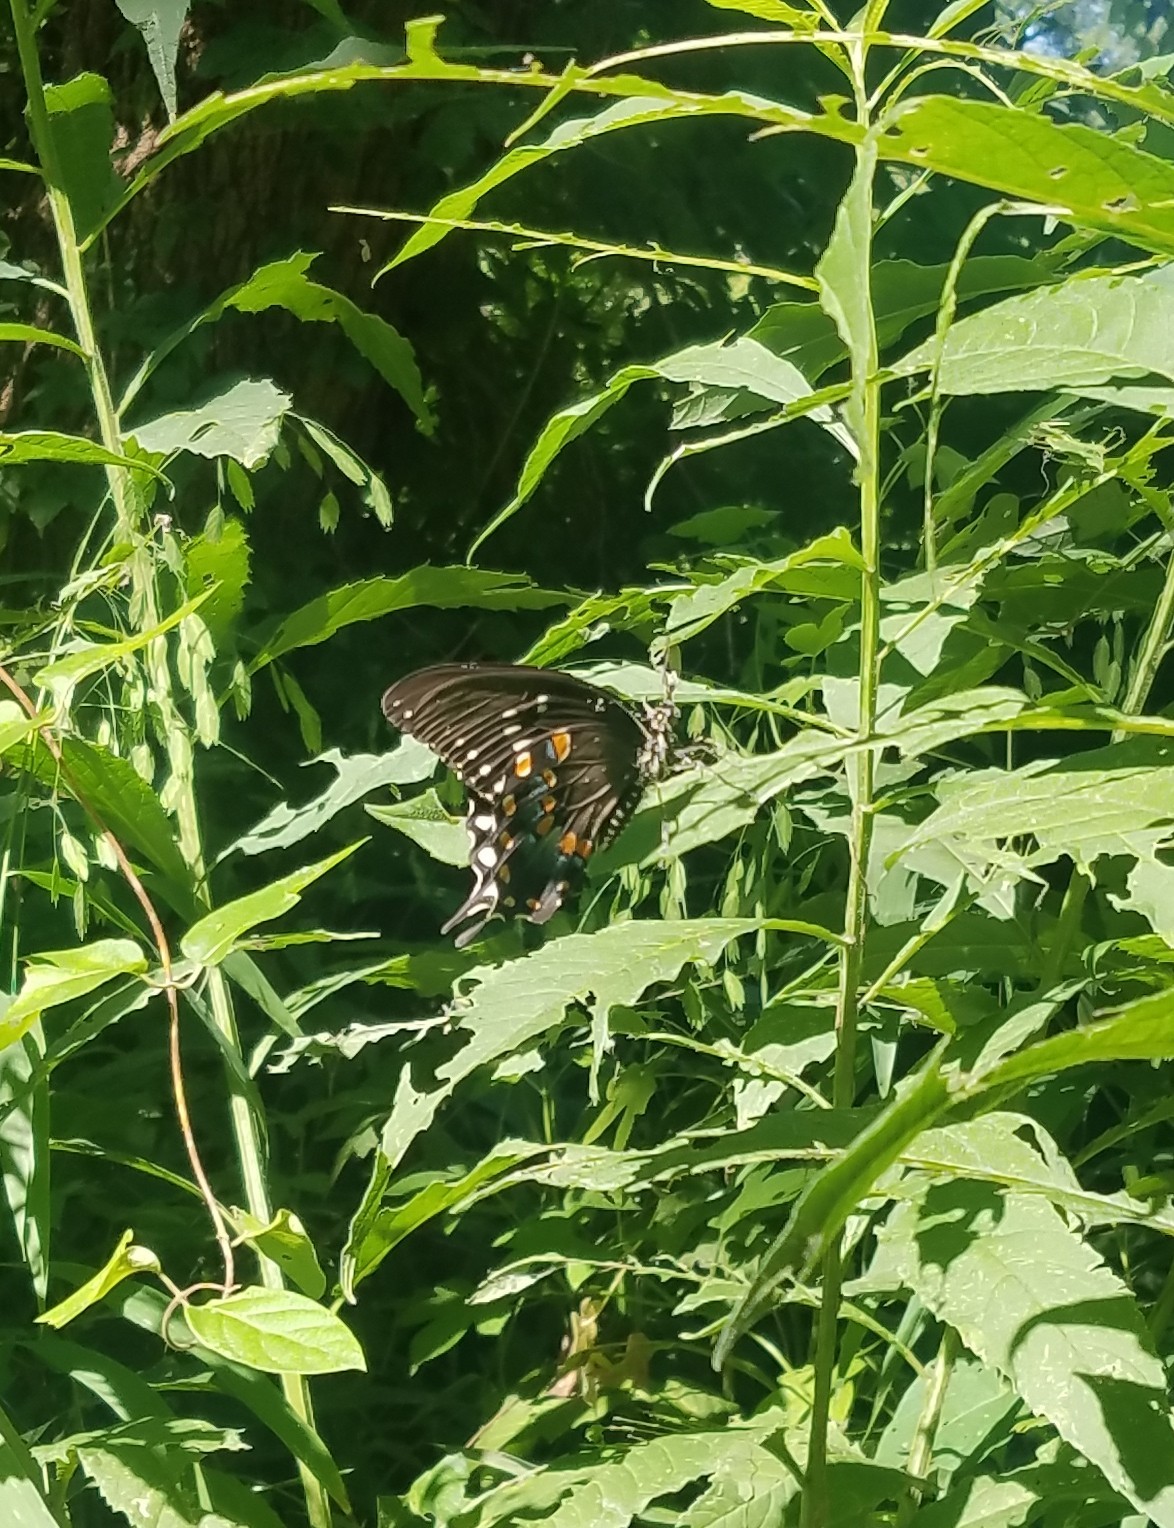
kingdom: Animalia
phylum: Arthropoda
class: Insecta
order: Lepidoptera
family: Papilionidae
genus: Papilio
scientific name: Papilio troilus
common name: Spicebush swallowtail
